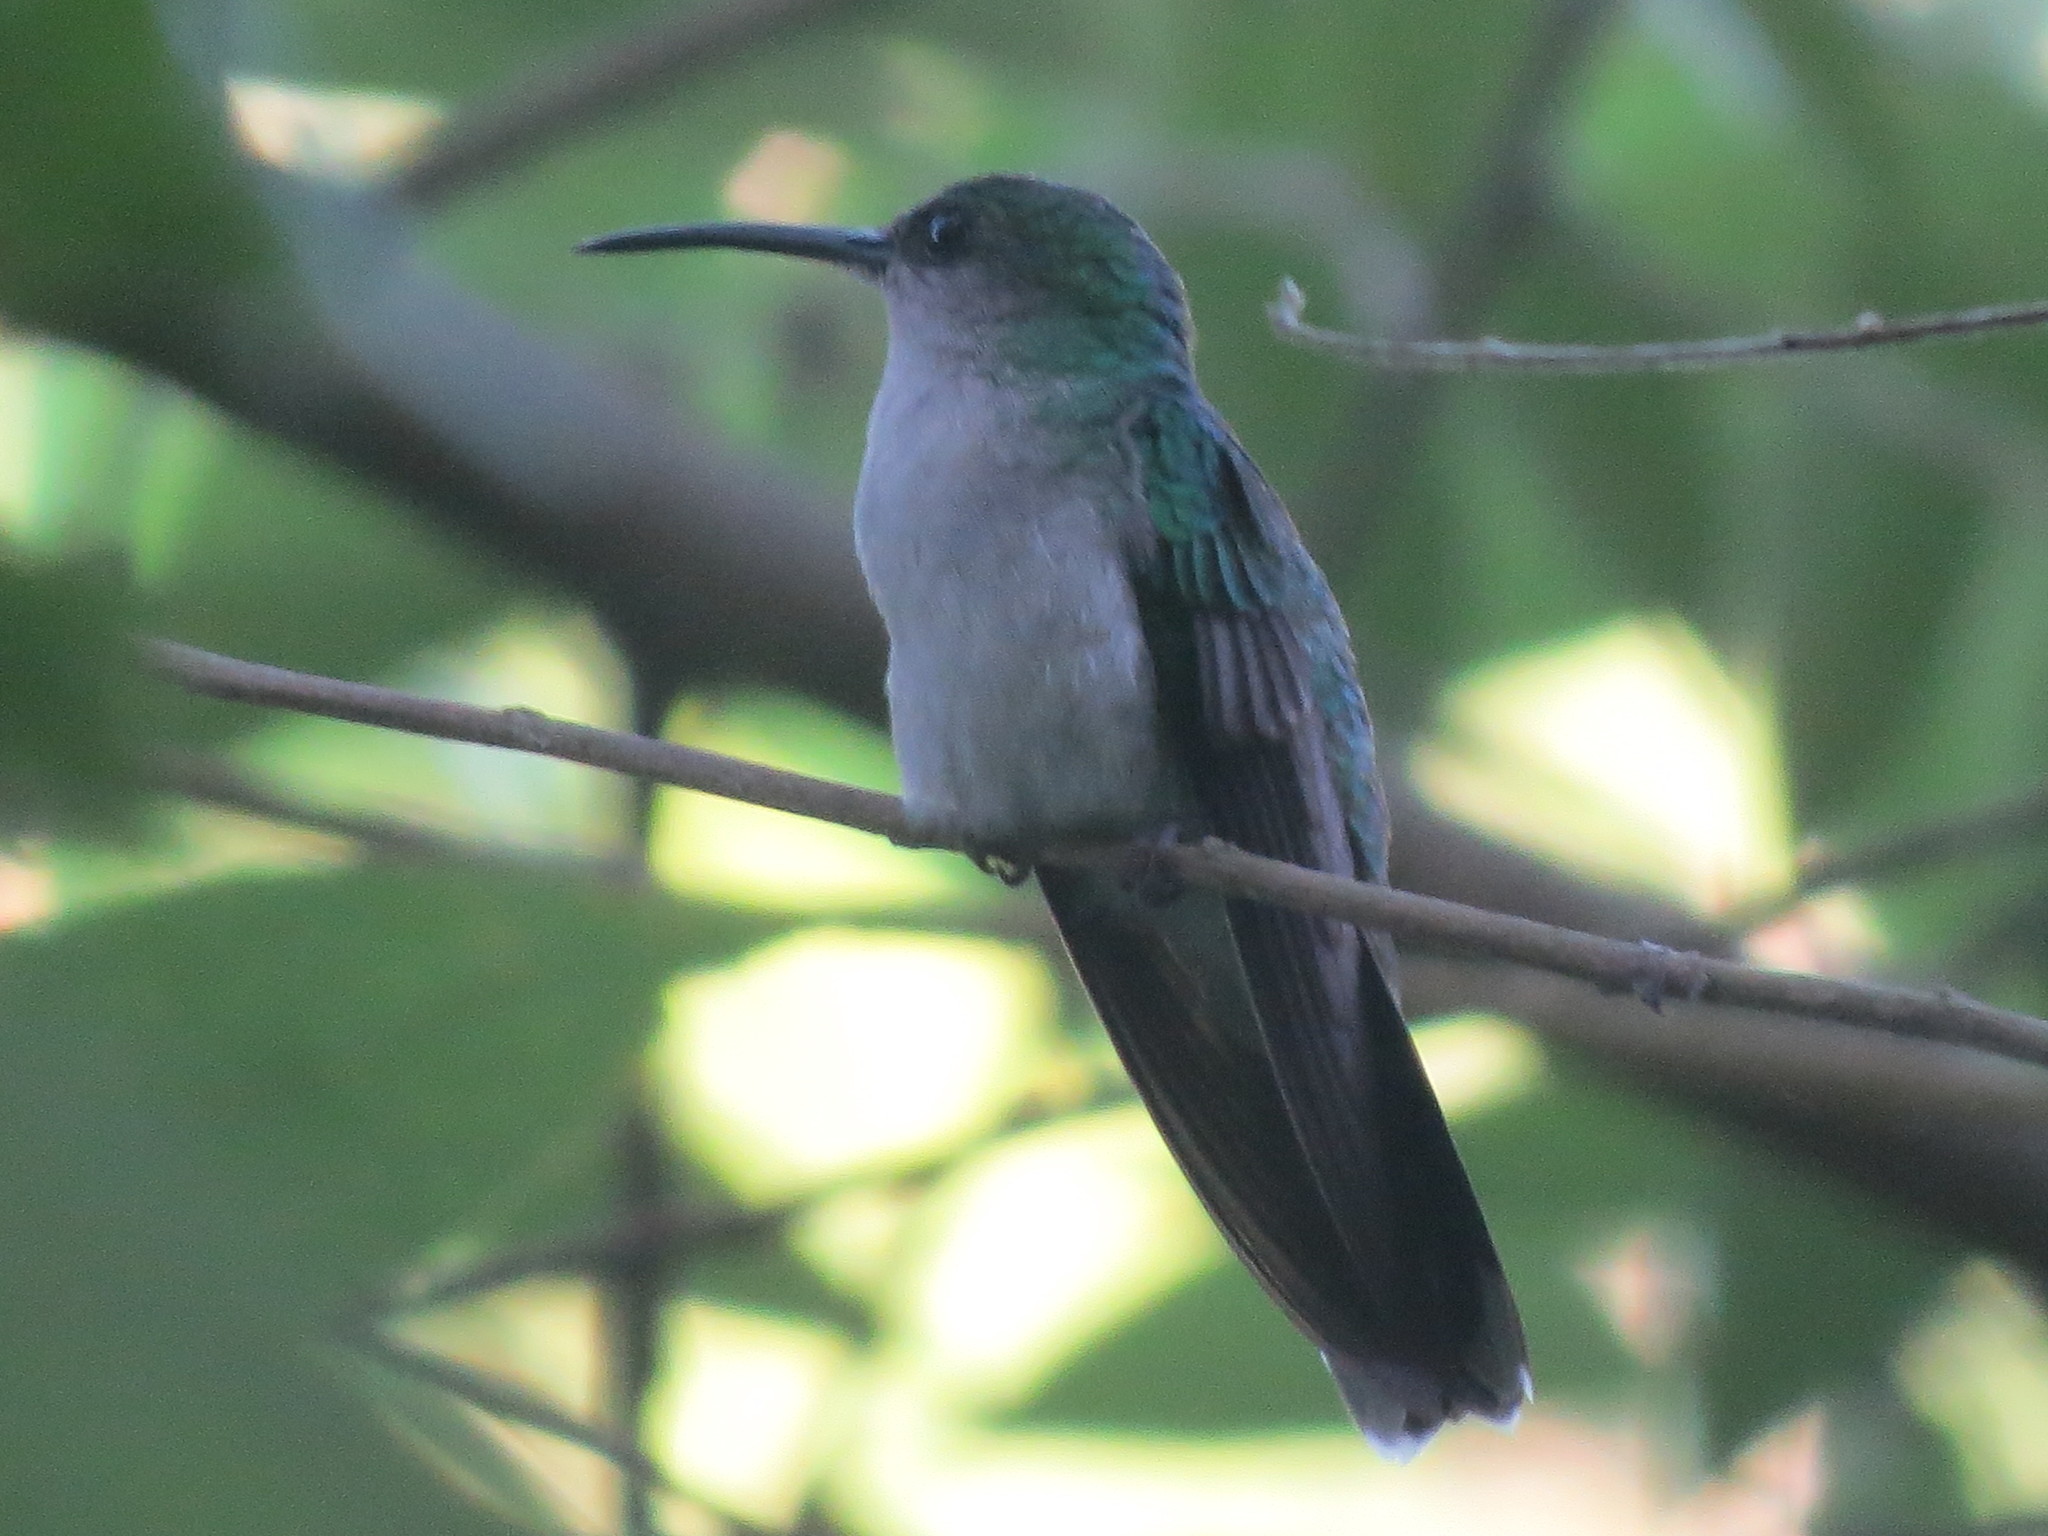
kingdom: Animalia
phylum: Chordata
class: Aves
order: Apodiformes
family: Trochilidae
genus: Chalybura
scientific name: Chalybura buffonii
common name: White-vented plumeleteer
